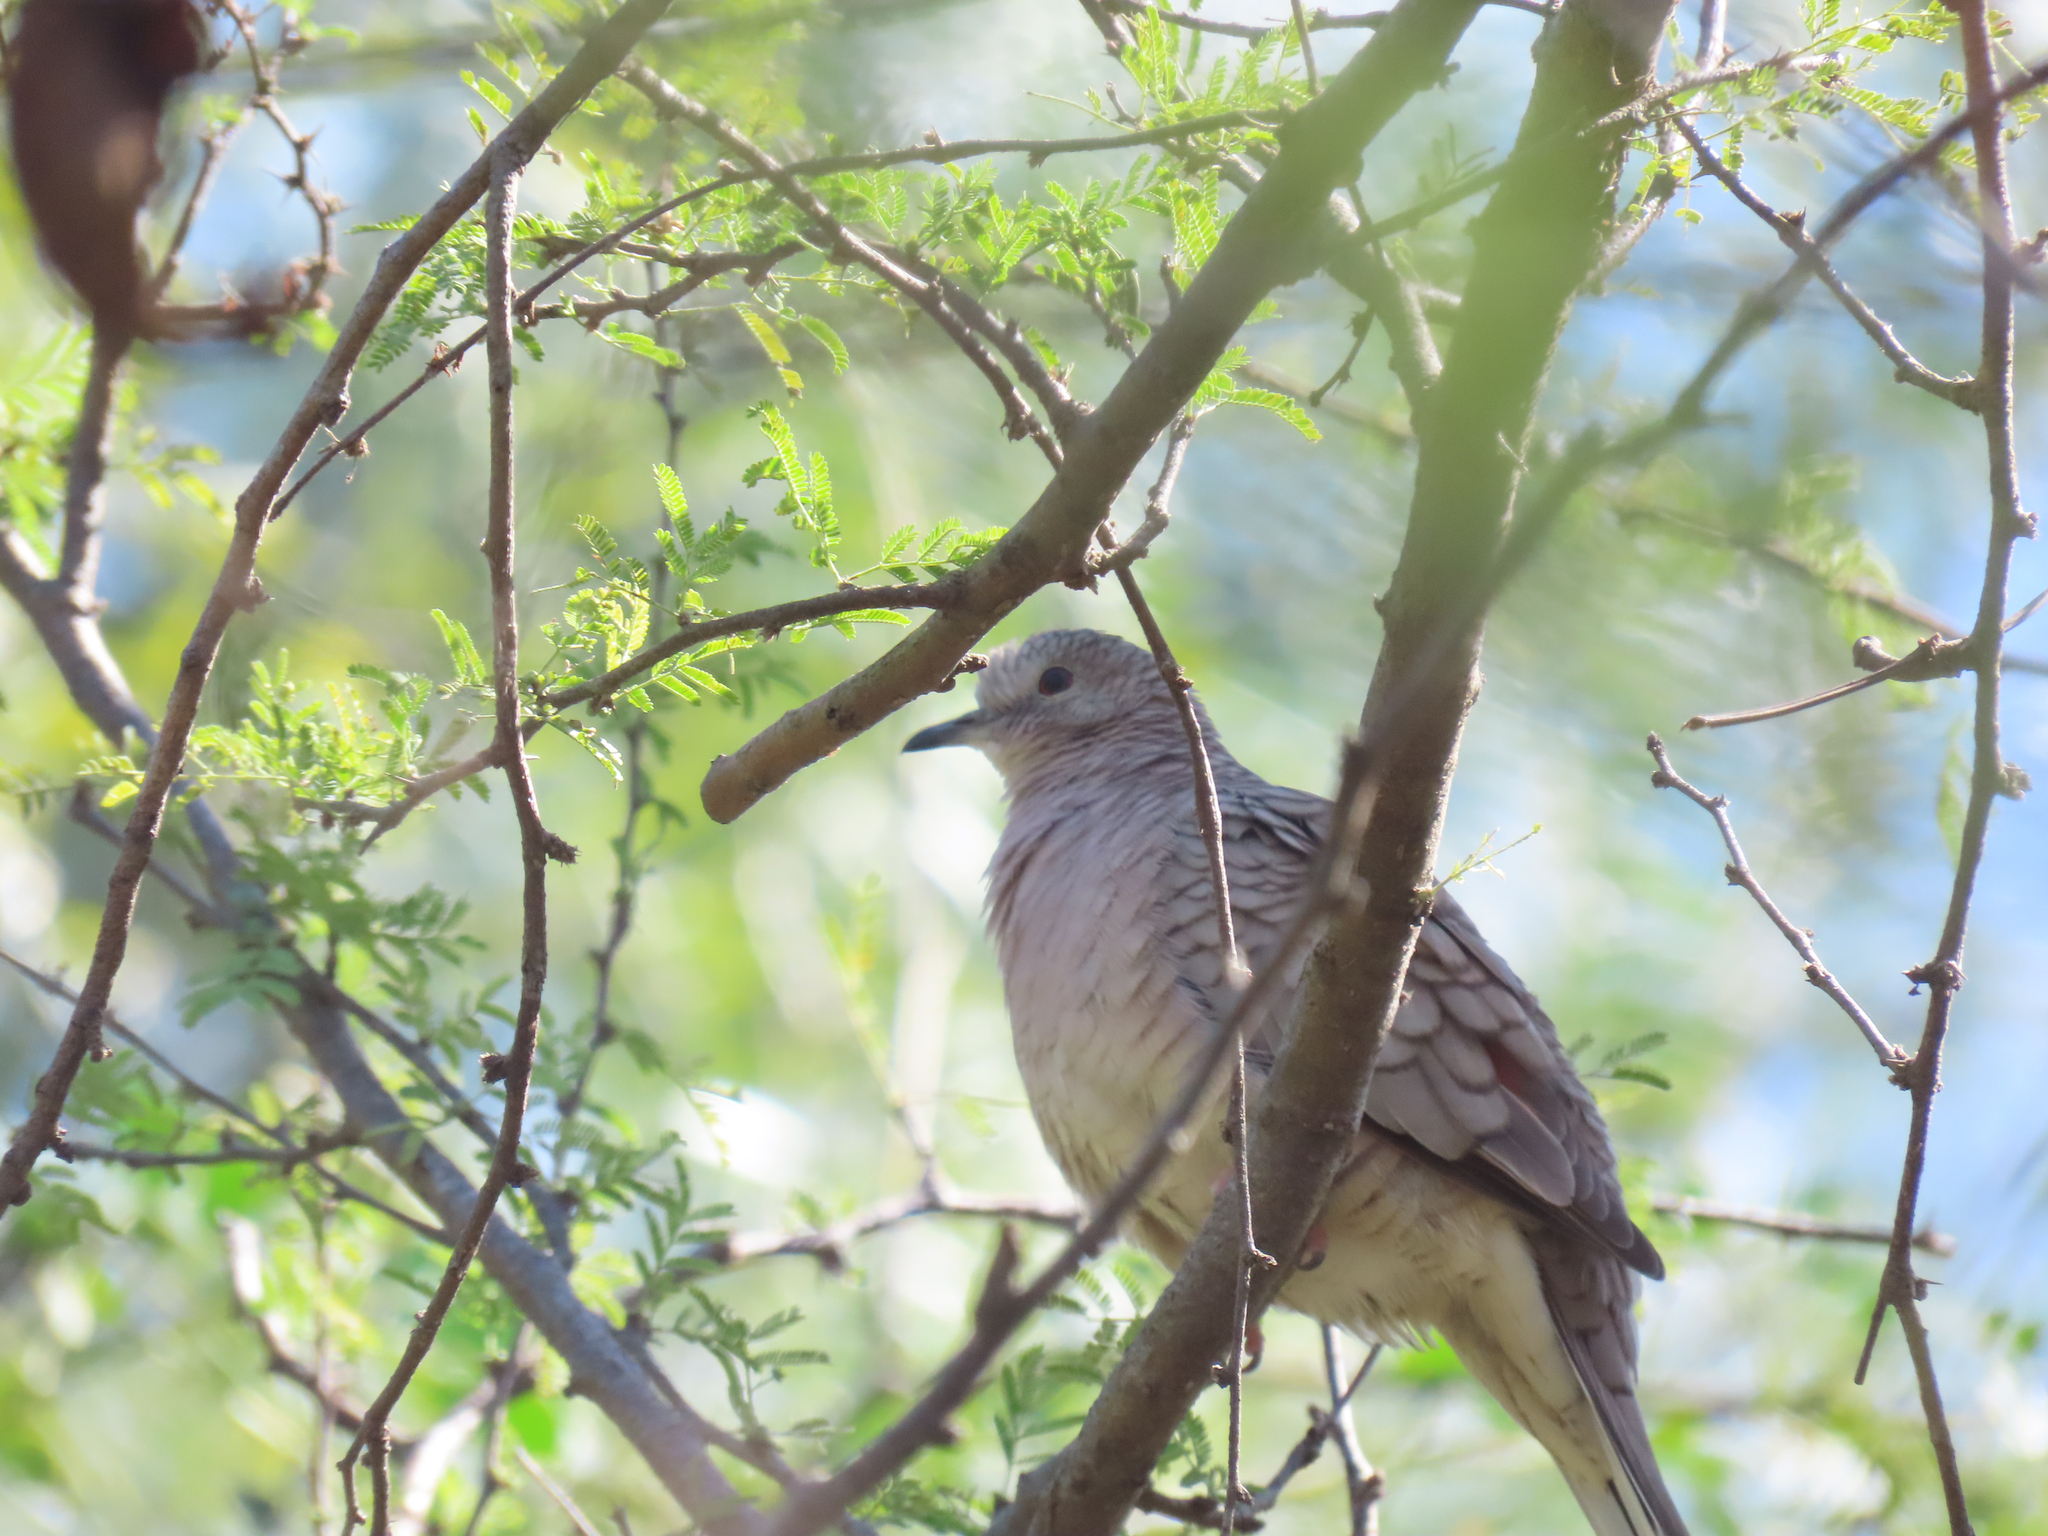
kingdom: Animalia
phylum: Chordata
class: Aves
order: Columbiformes
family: Columbidae
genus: Columbina
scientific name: Columbina inca
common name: Inca dove
